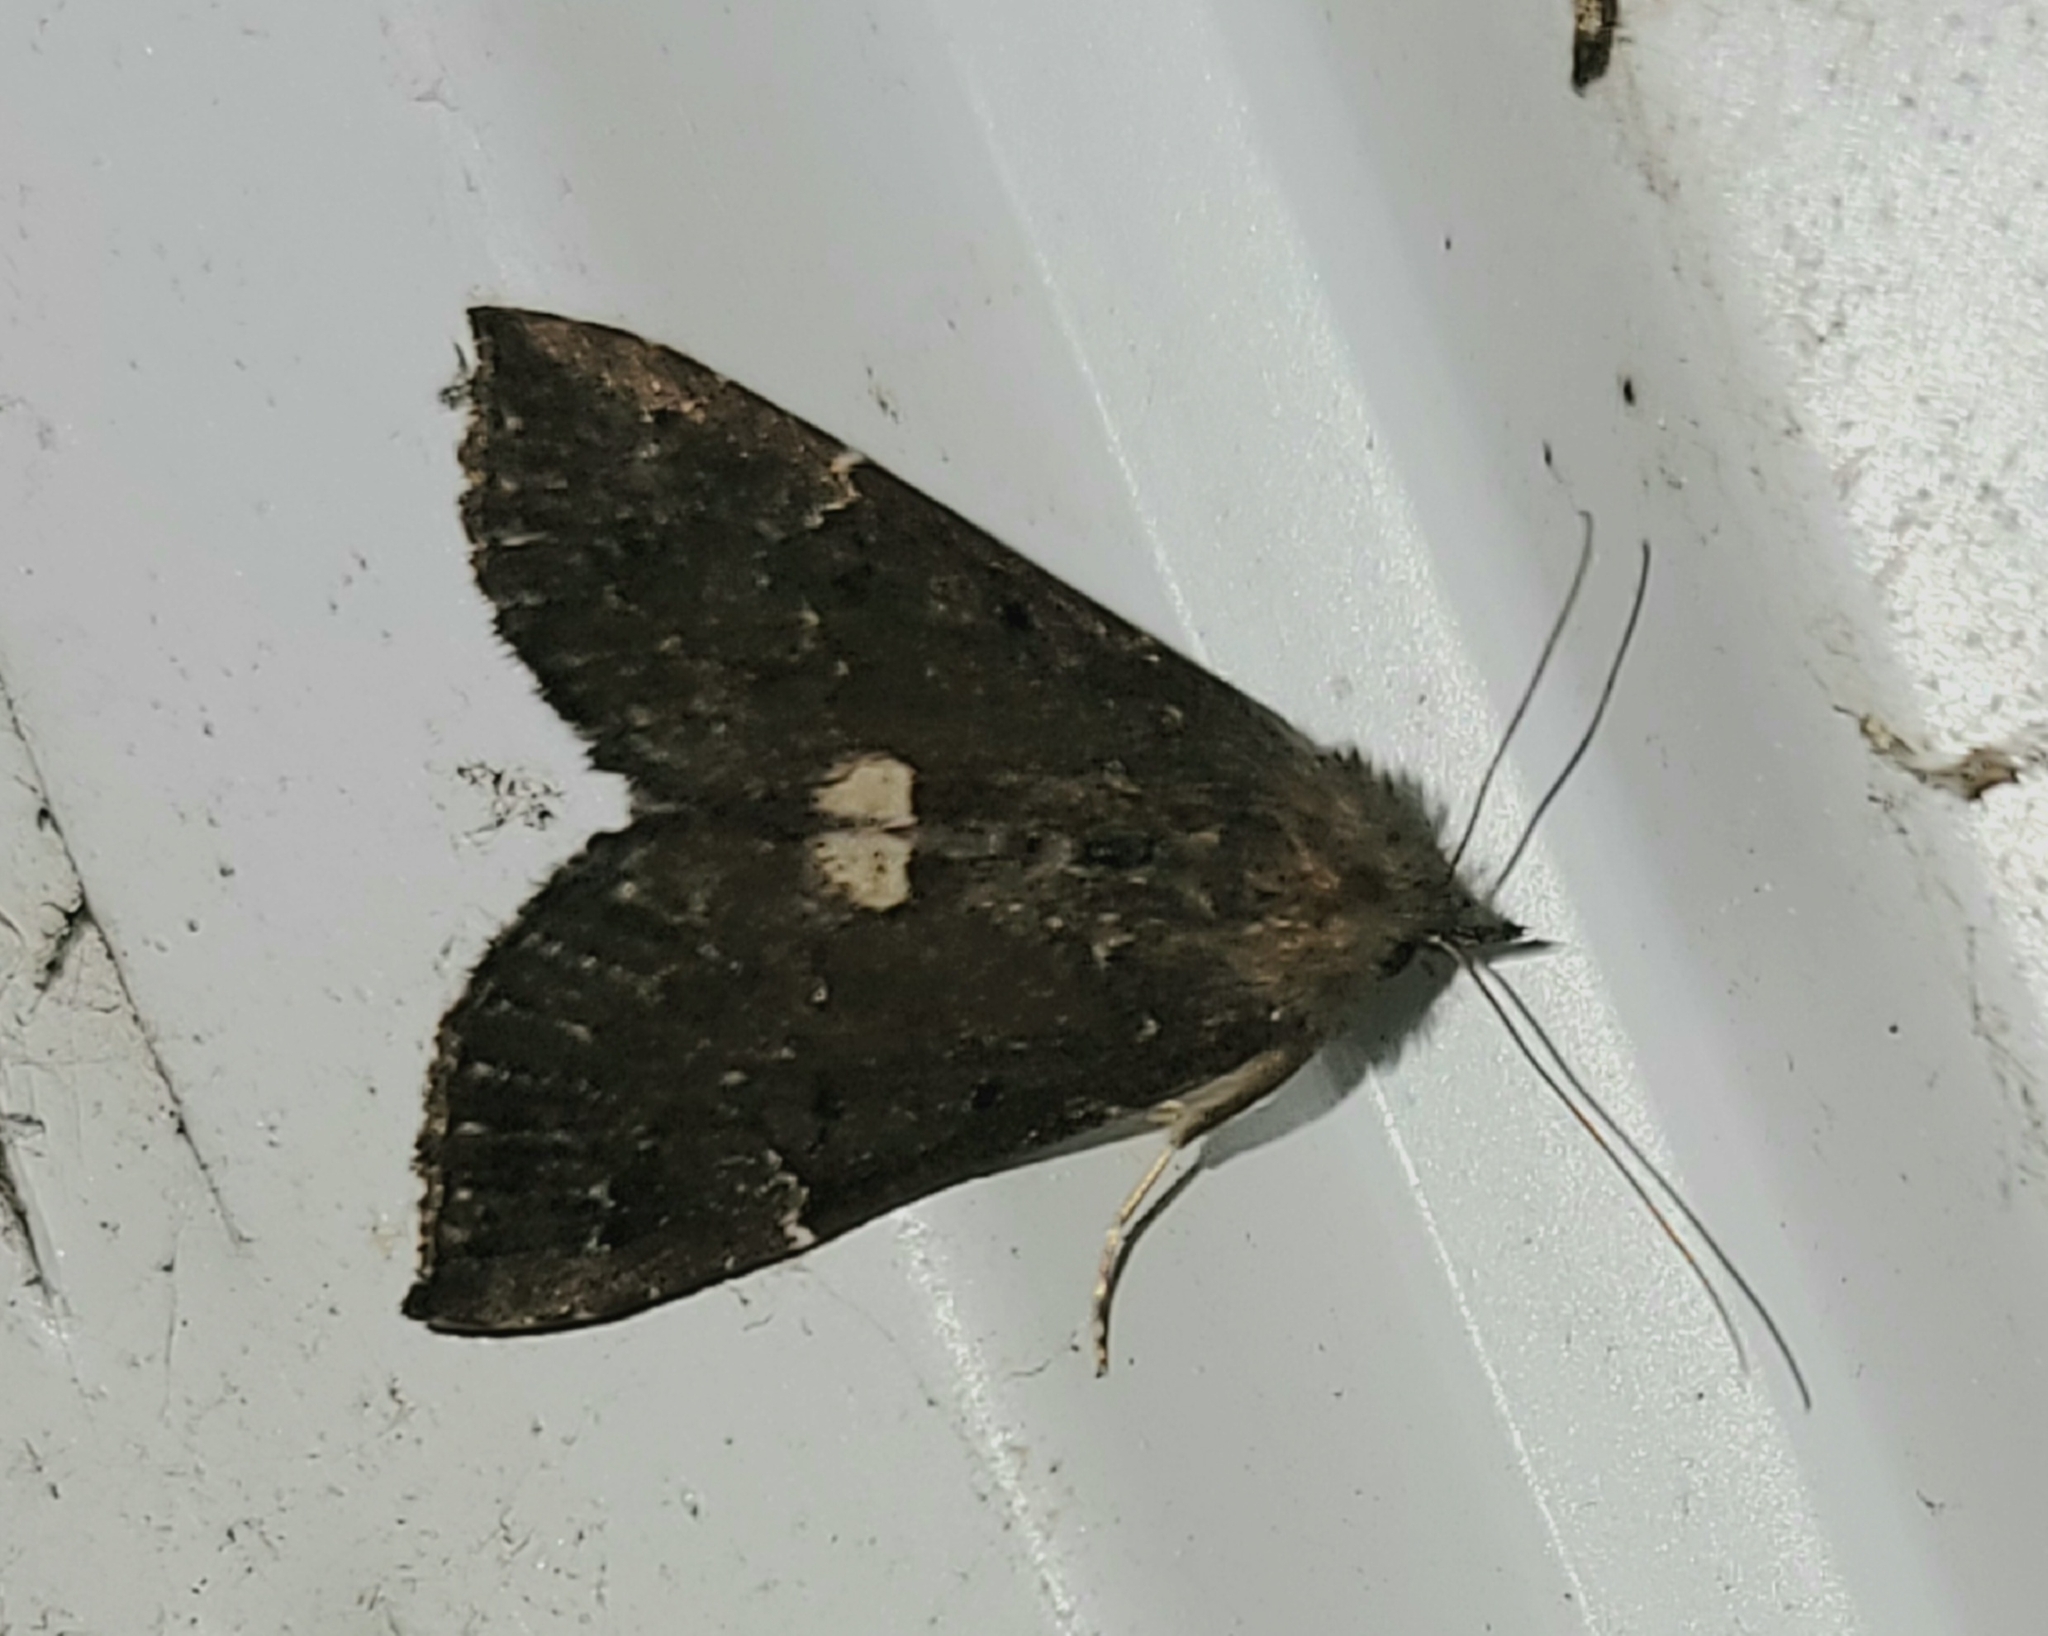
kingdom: Animalia
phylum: Arthropoda
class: Insecta
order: Lepidoptera
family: Erebidae
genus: Hypena
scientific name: Hypena bijugalis
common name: Dimorphic bomolocha moth
